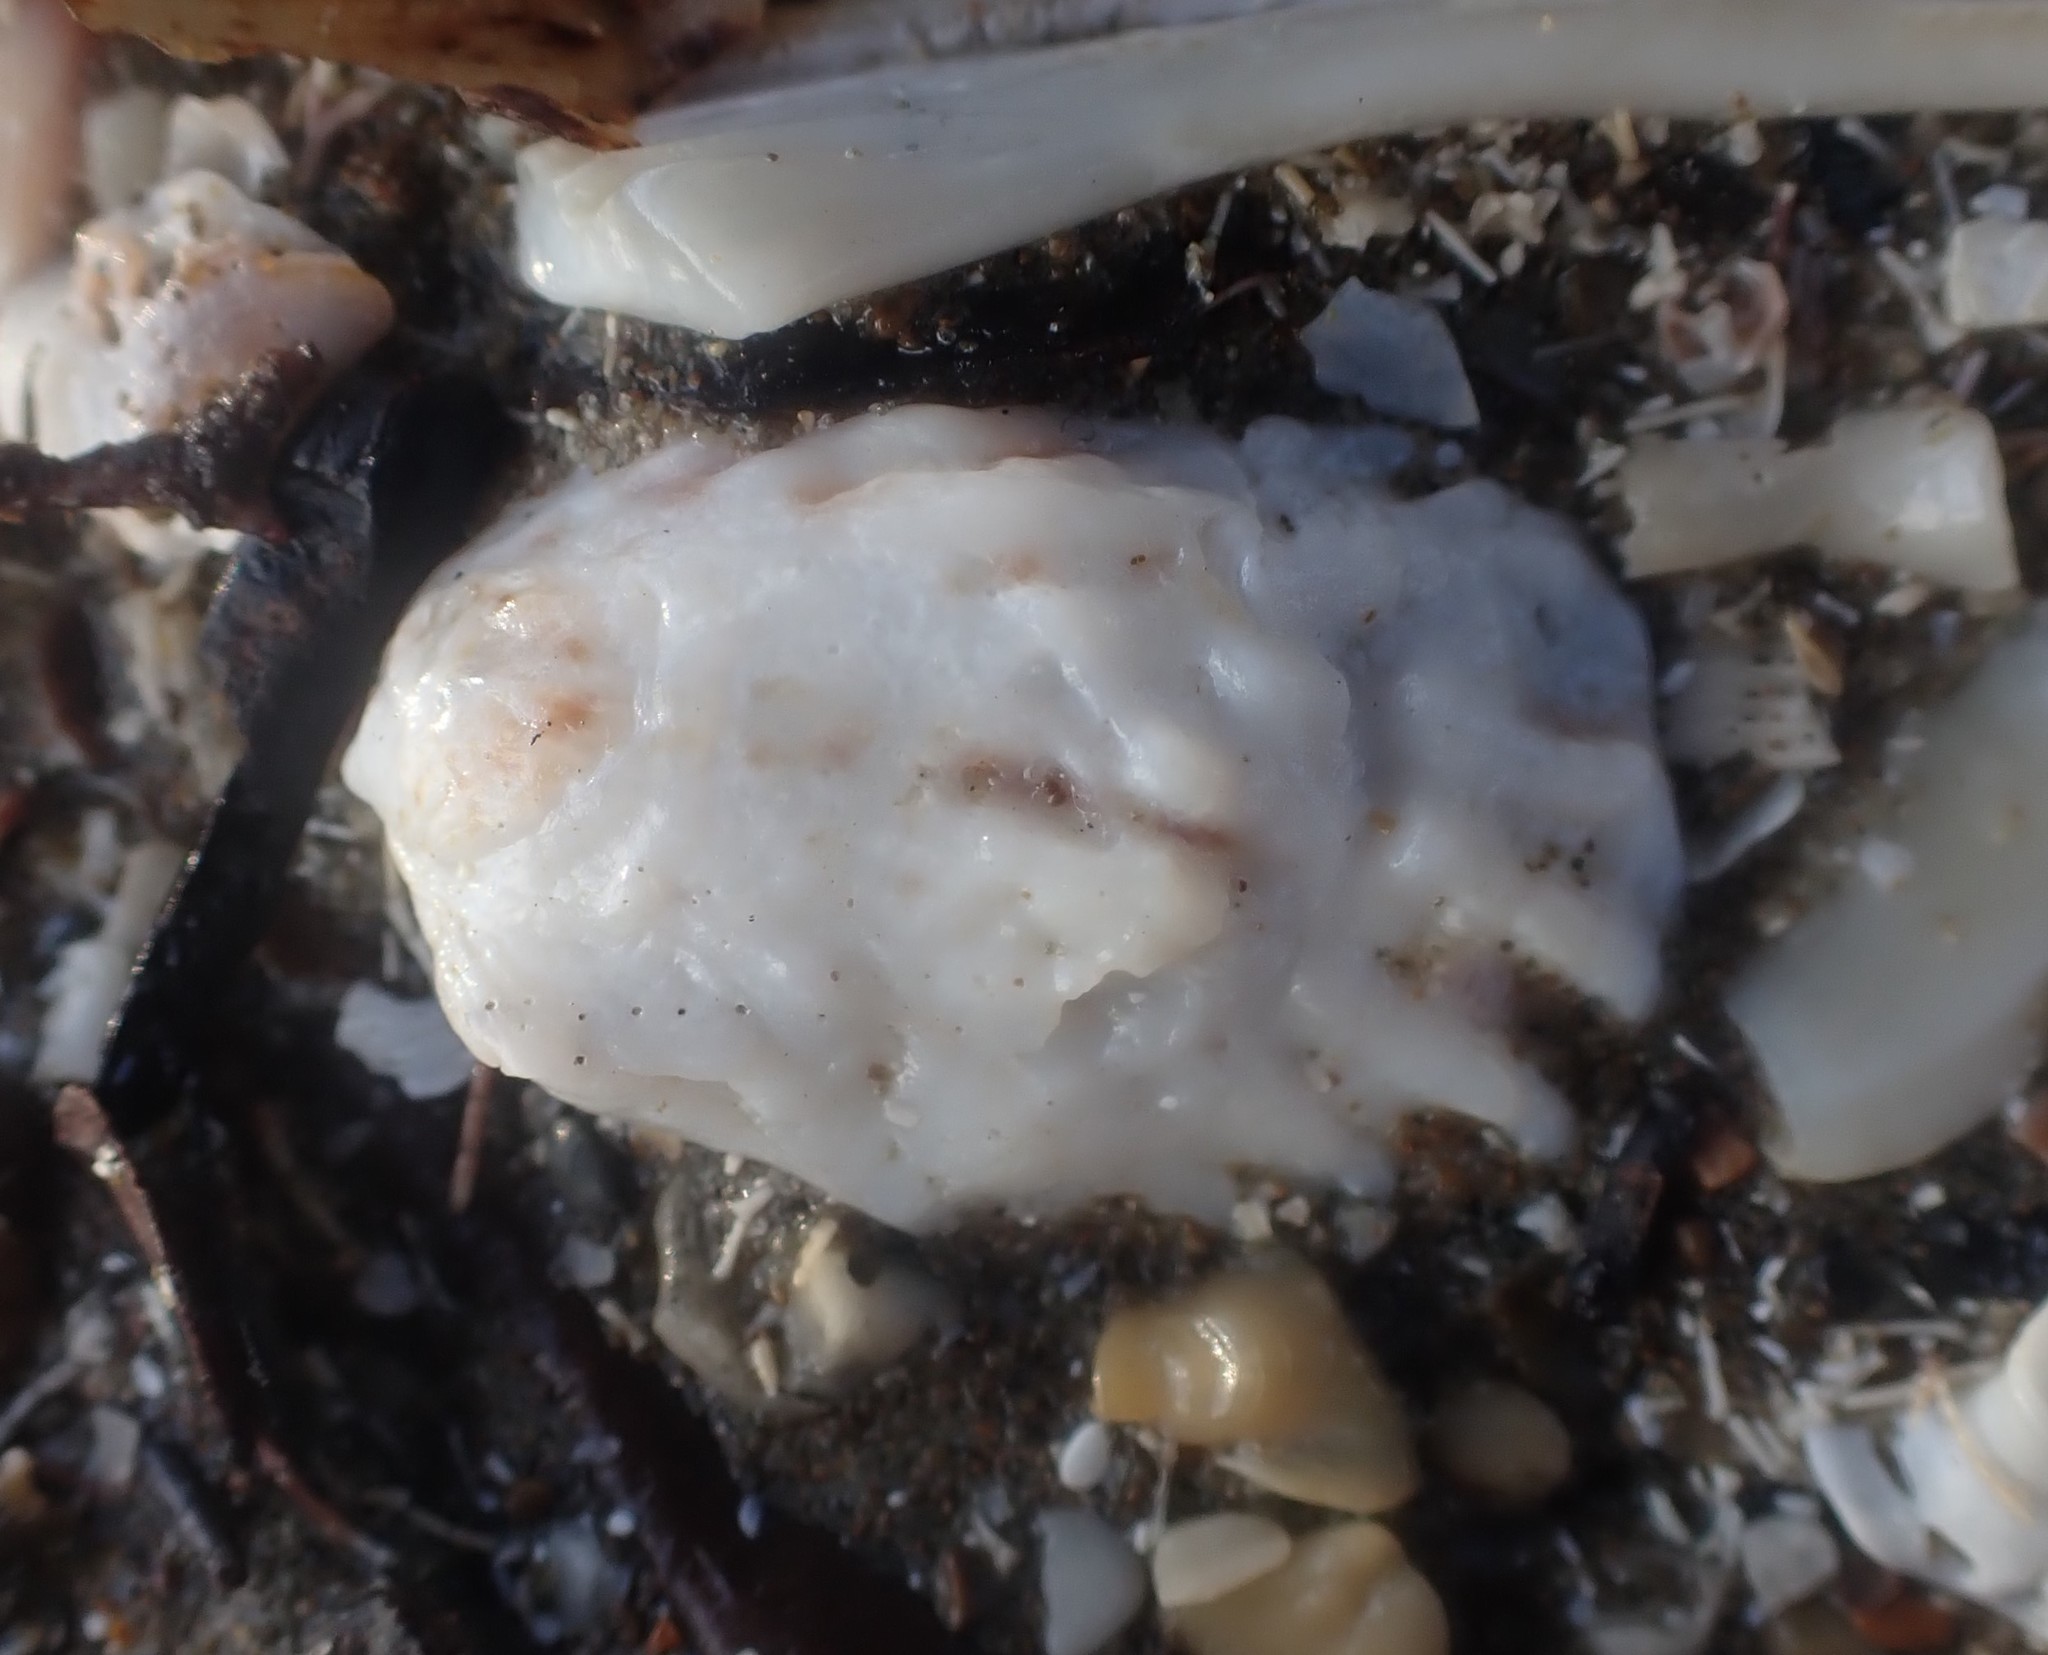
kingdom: Animalia
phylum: Mollusca
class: Gastropoda
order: Littorinimorpha
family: Calyptraeidae
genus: Maoricrypta
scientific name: Maoricrypta costata
